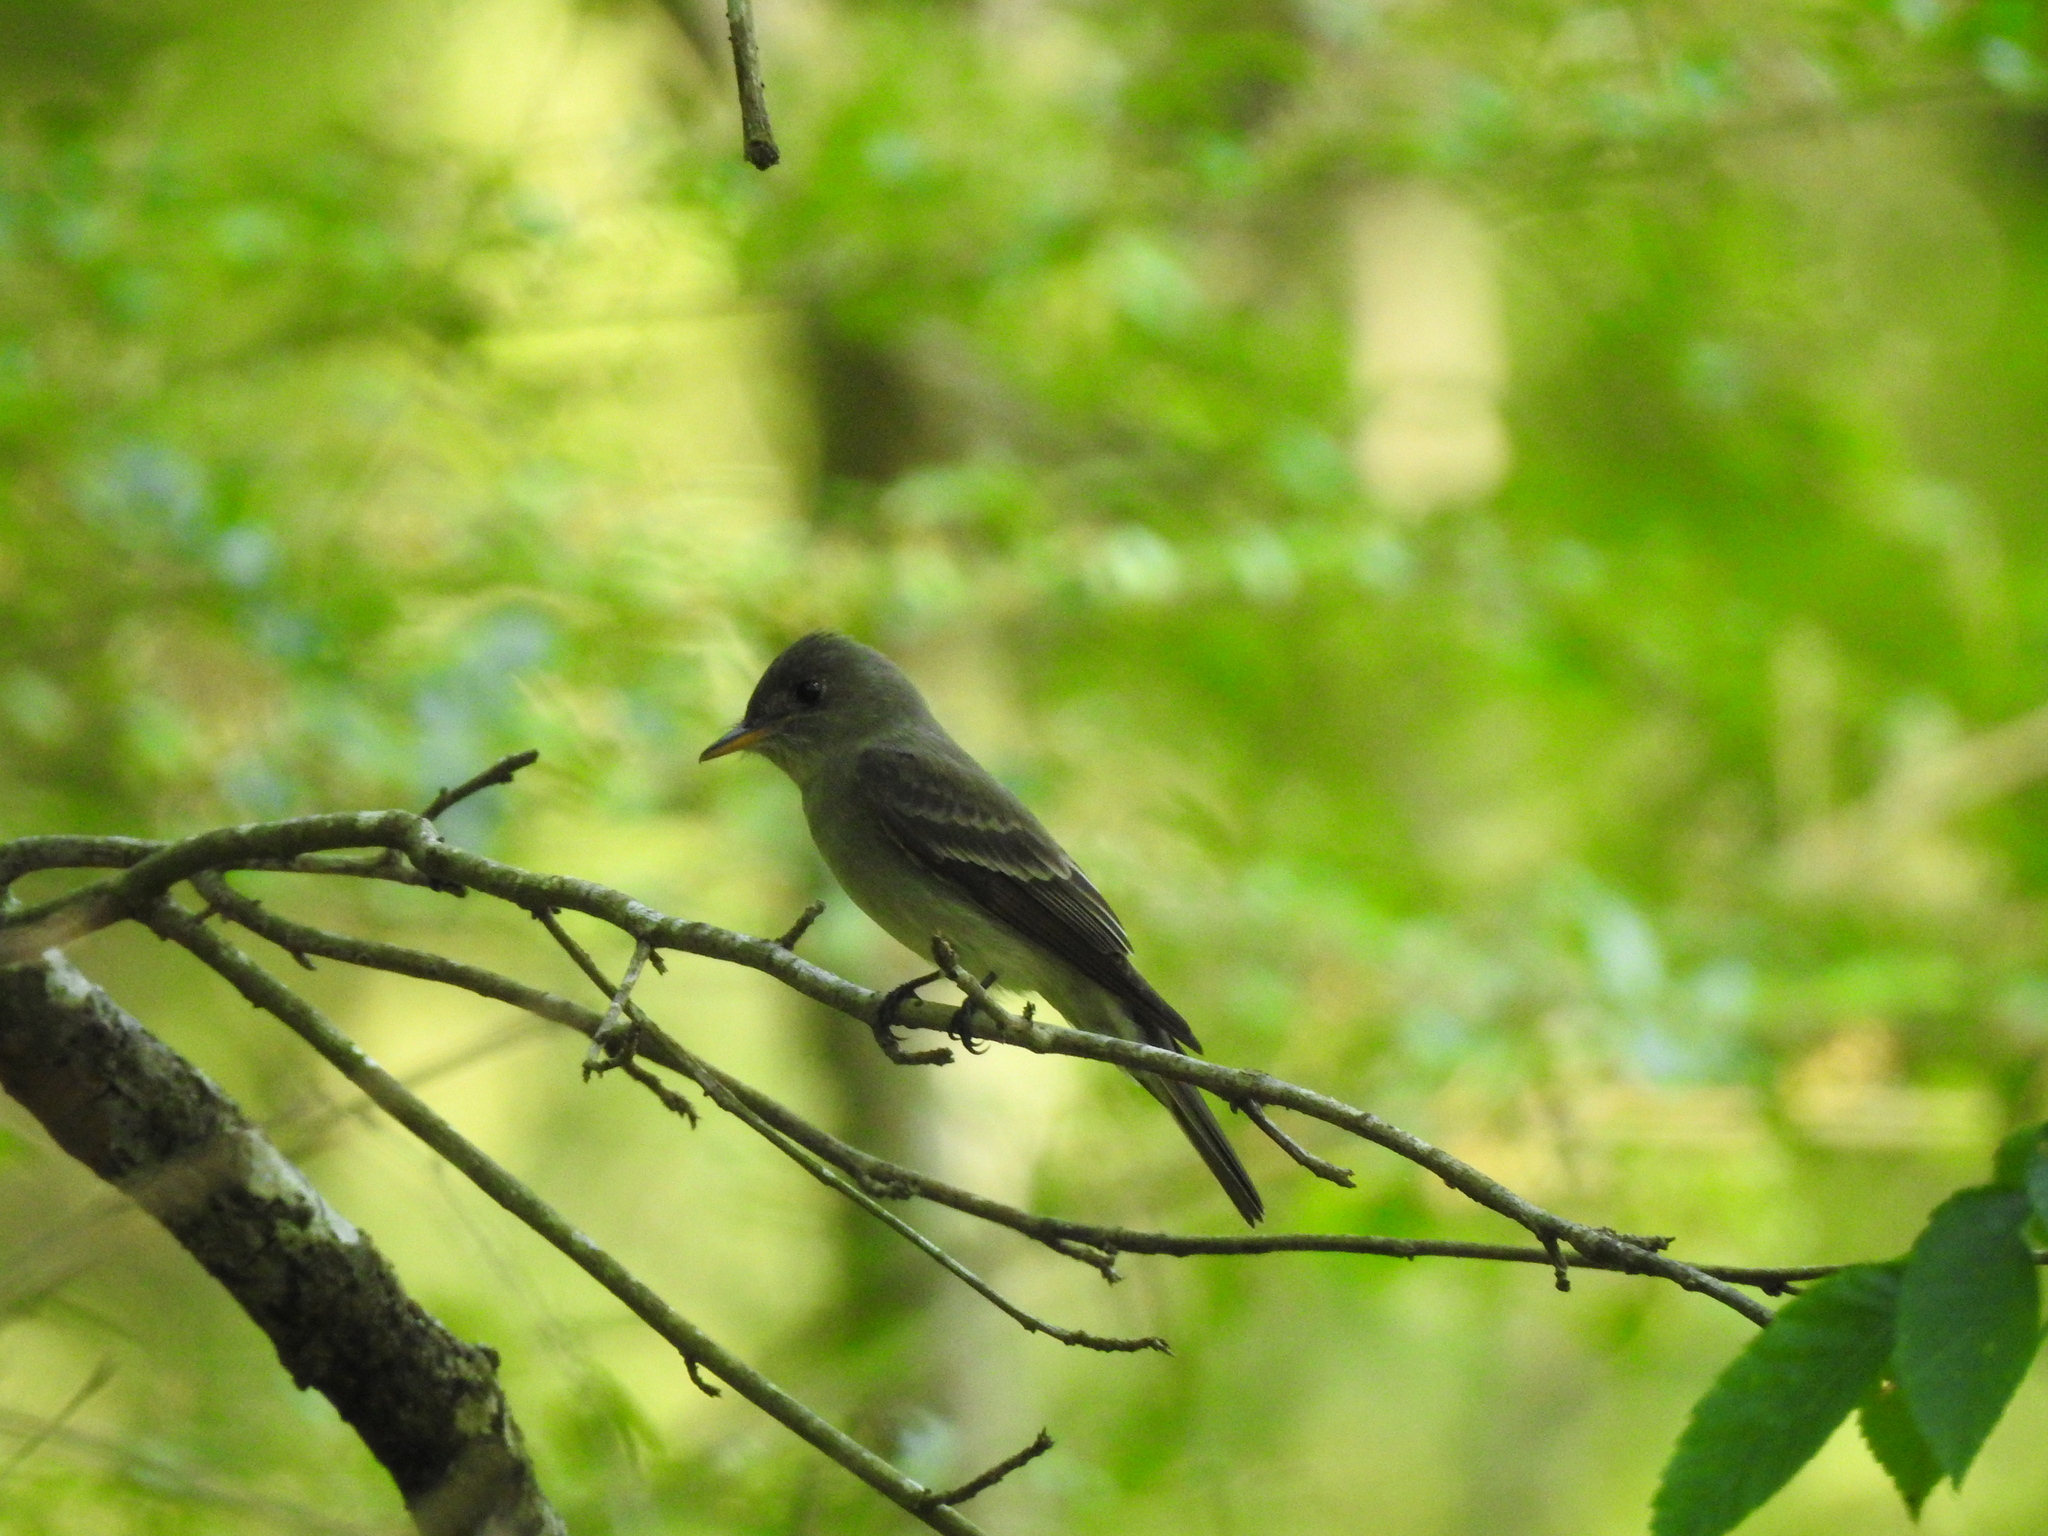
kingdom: Animalia
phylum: Chordata
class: Aves
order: Passeriformes
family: Tyrannidae
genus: Contopus
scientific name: Contopus virens
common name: Eastern wood-pewee
